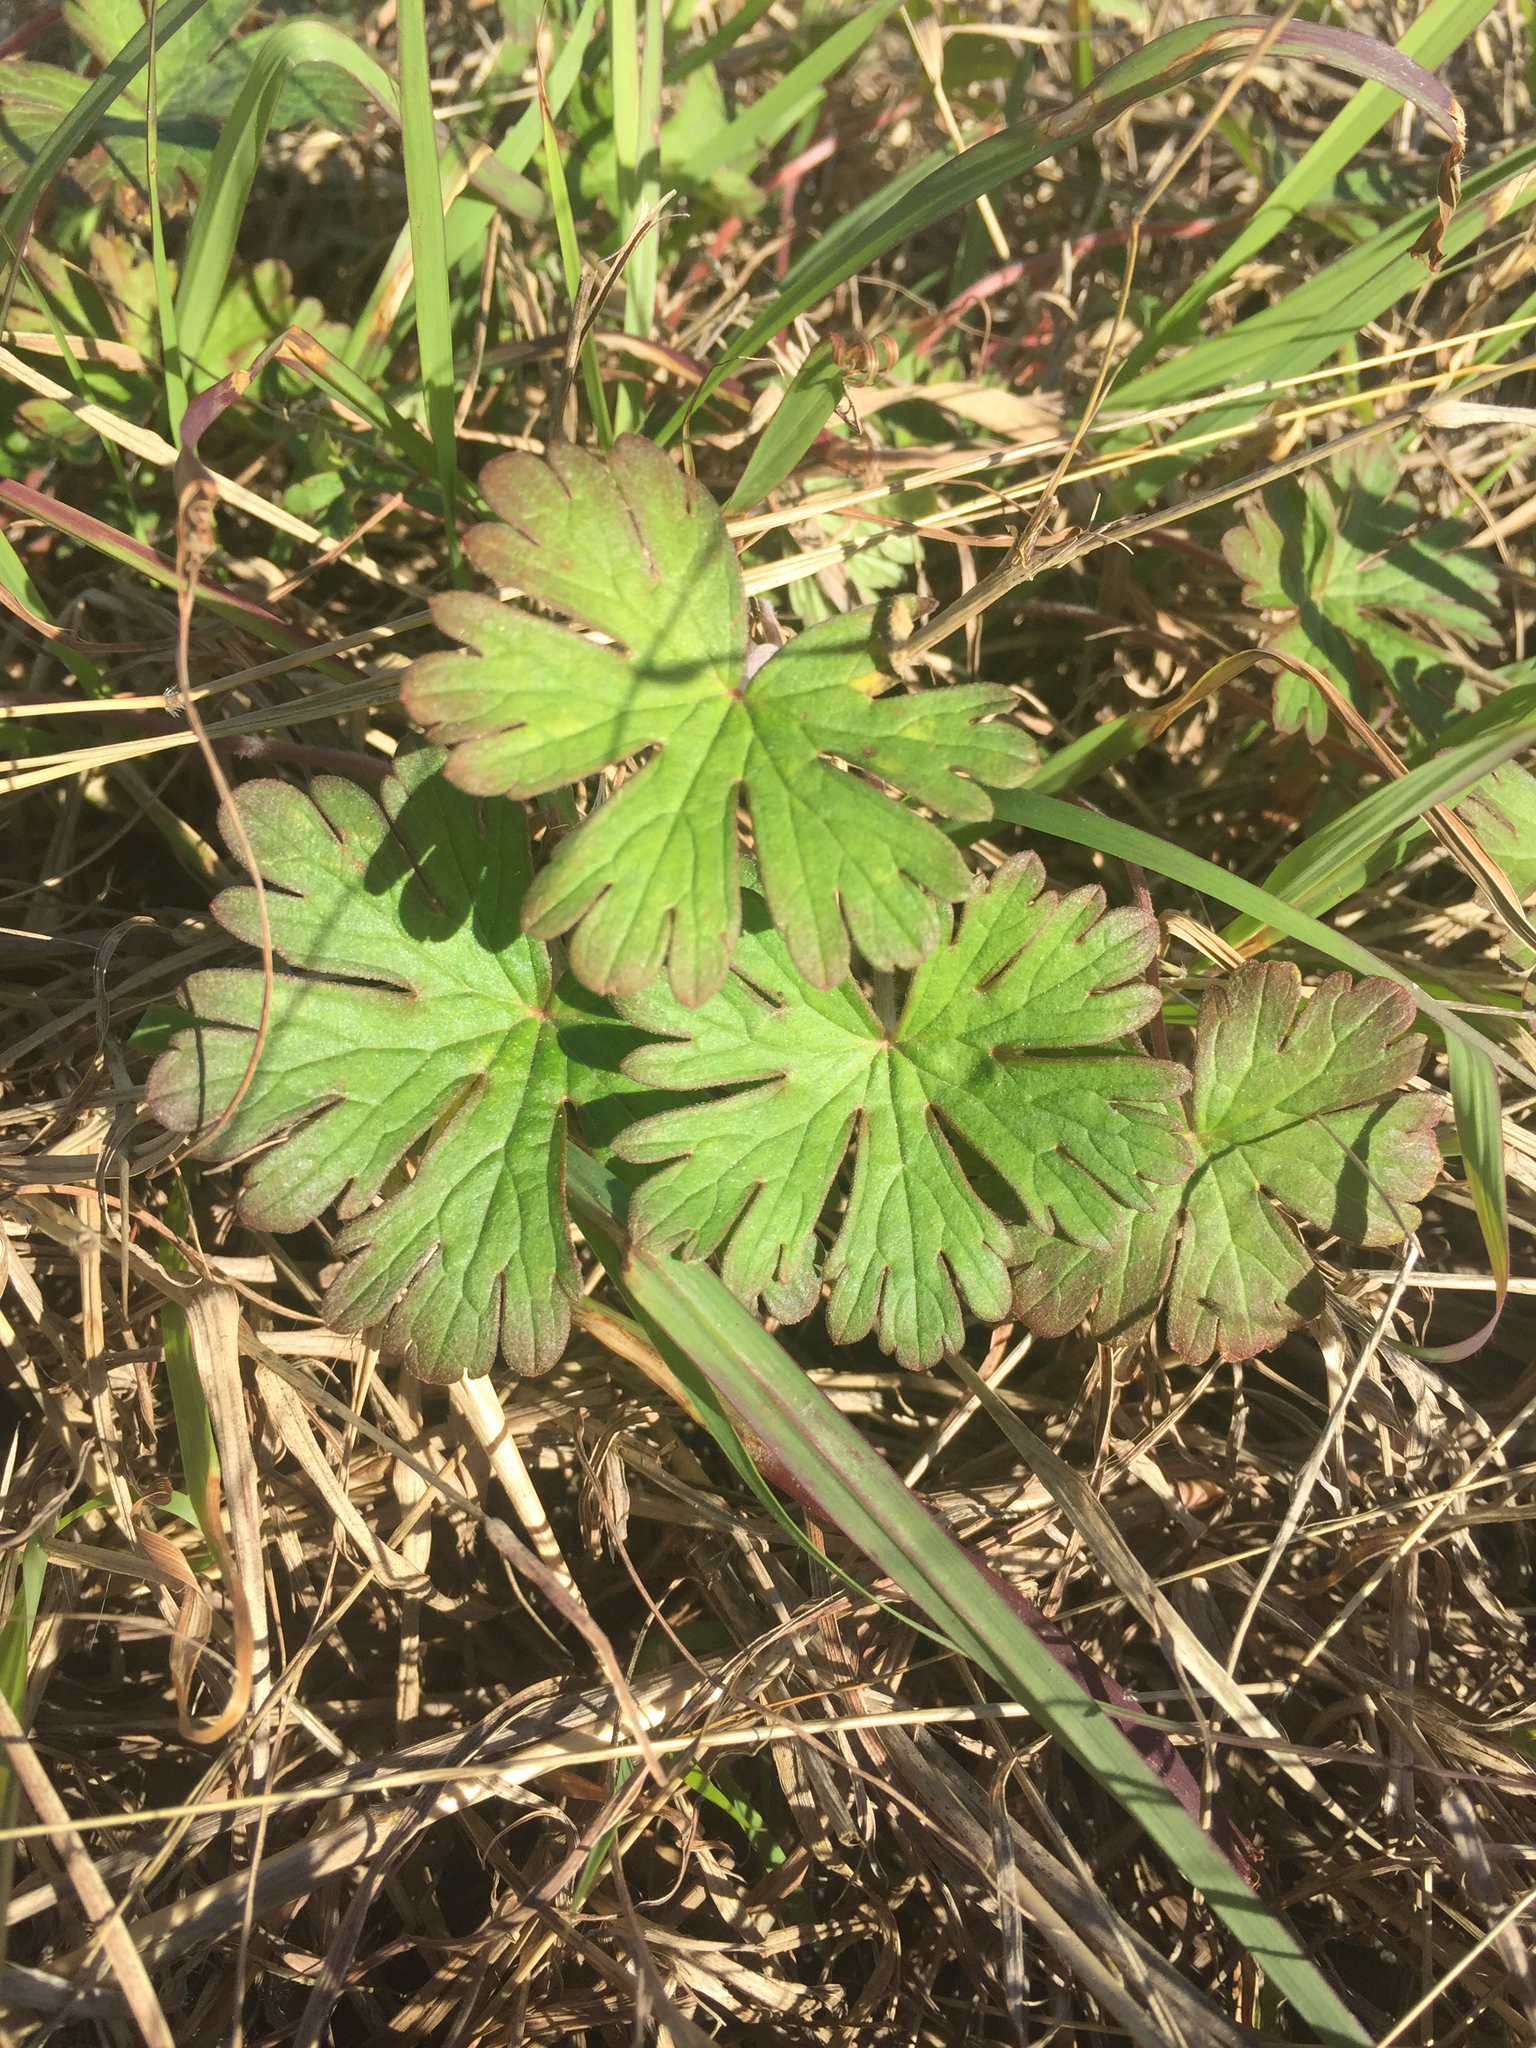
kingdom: Plantae
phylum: Tracheophyta
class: Magnoliopsida
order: Geraniales
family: Geraniaceae
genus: Geranium
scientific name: Geranium carolinianum
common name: Carolina crane's-bill
